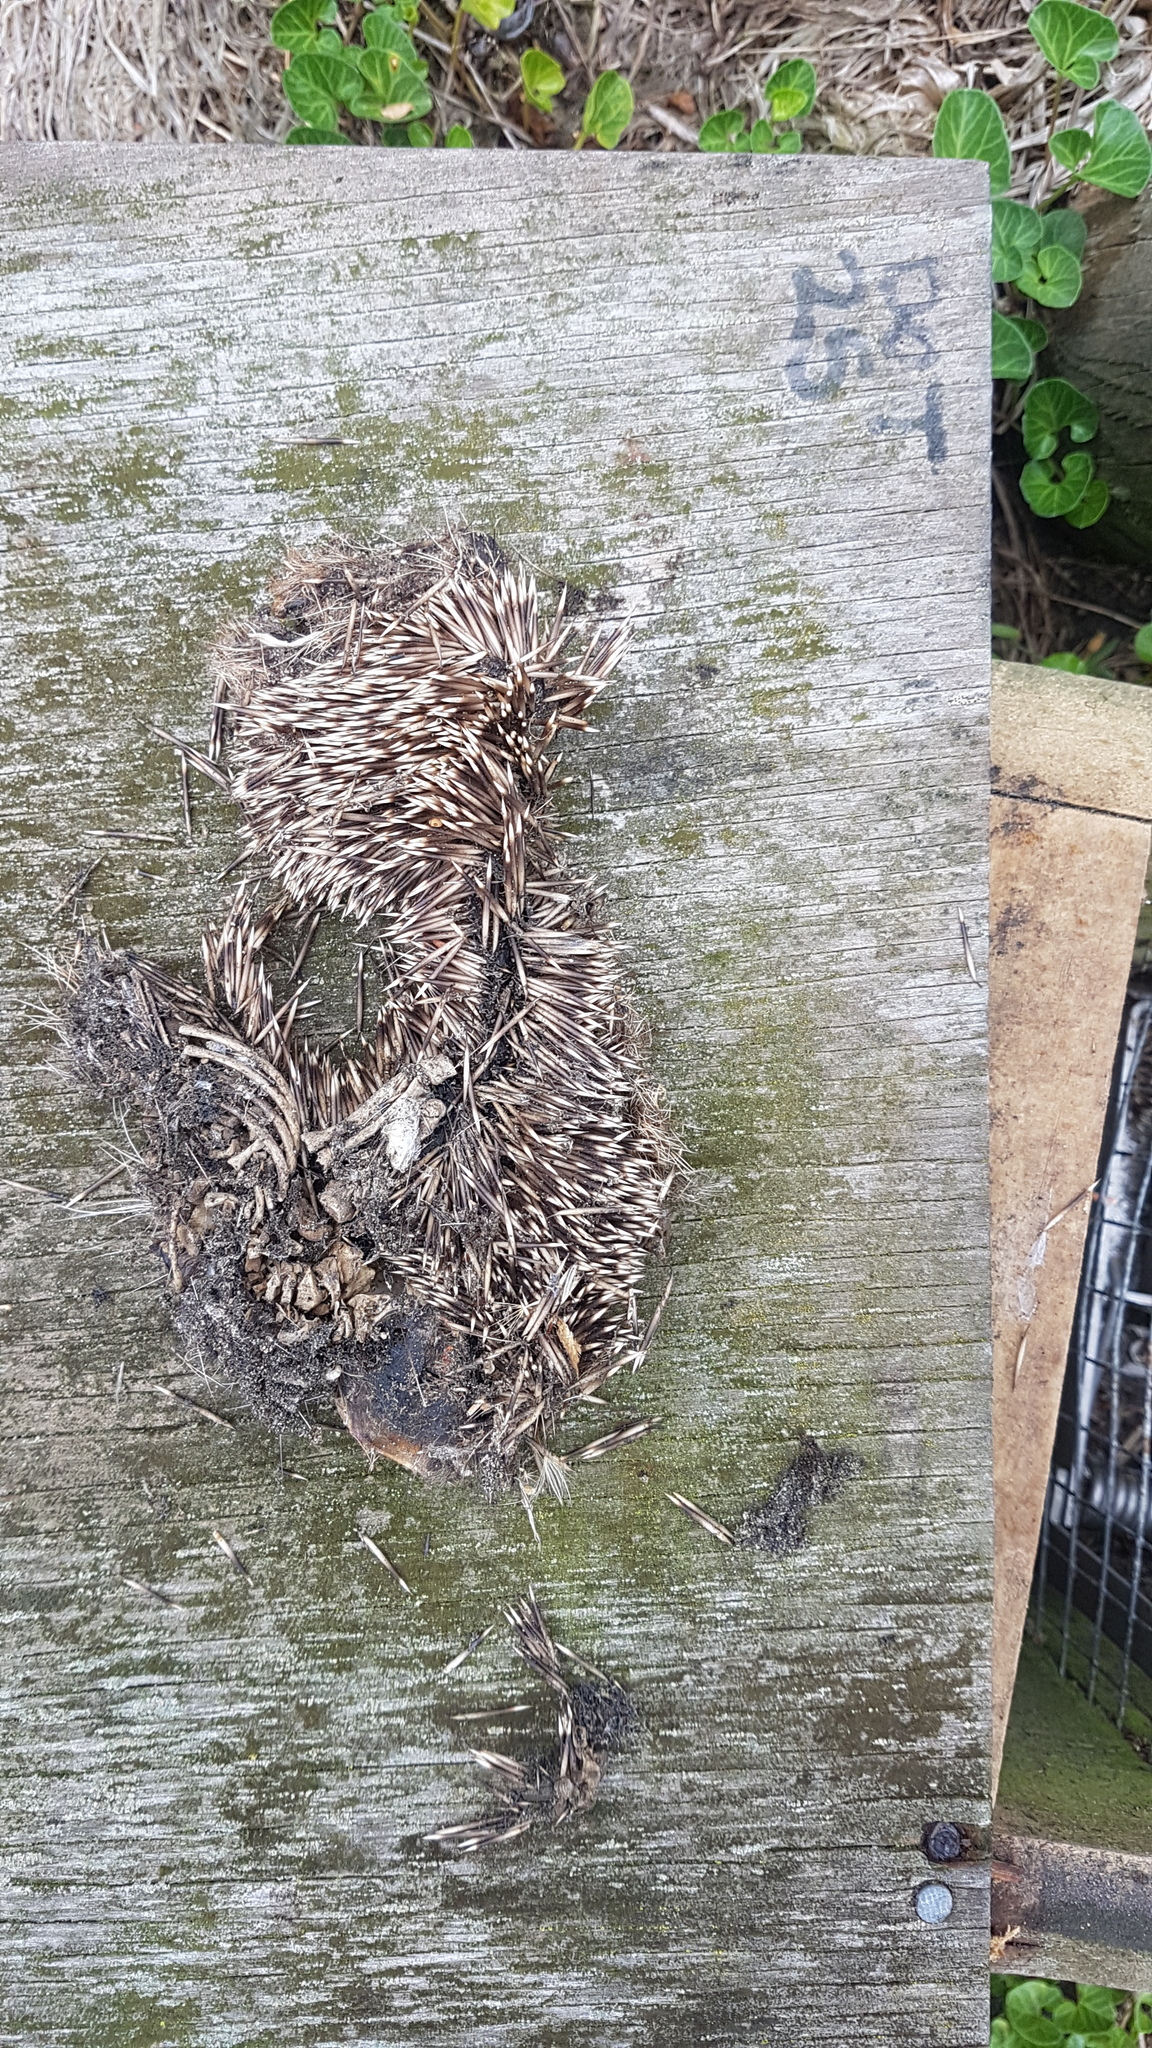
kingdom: Animalia
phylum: Chordata
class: Mammalia
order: Erinaceomorpha
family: Erinaceidae
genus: Erinaceus
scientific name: Erinaceus europaeus
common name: West european hedgehog
